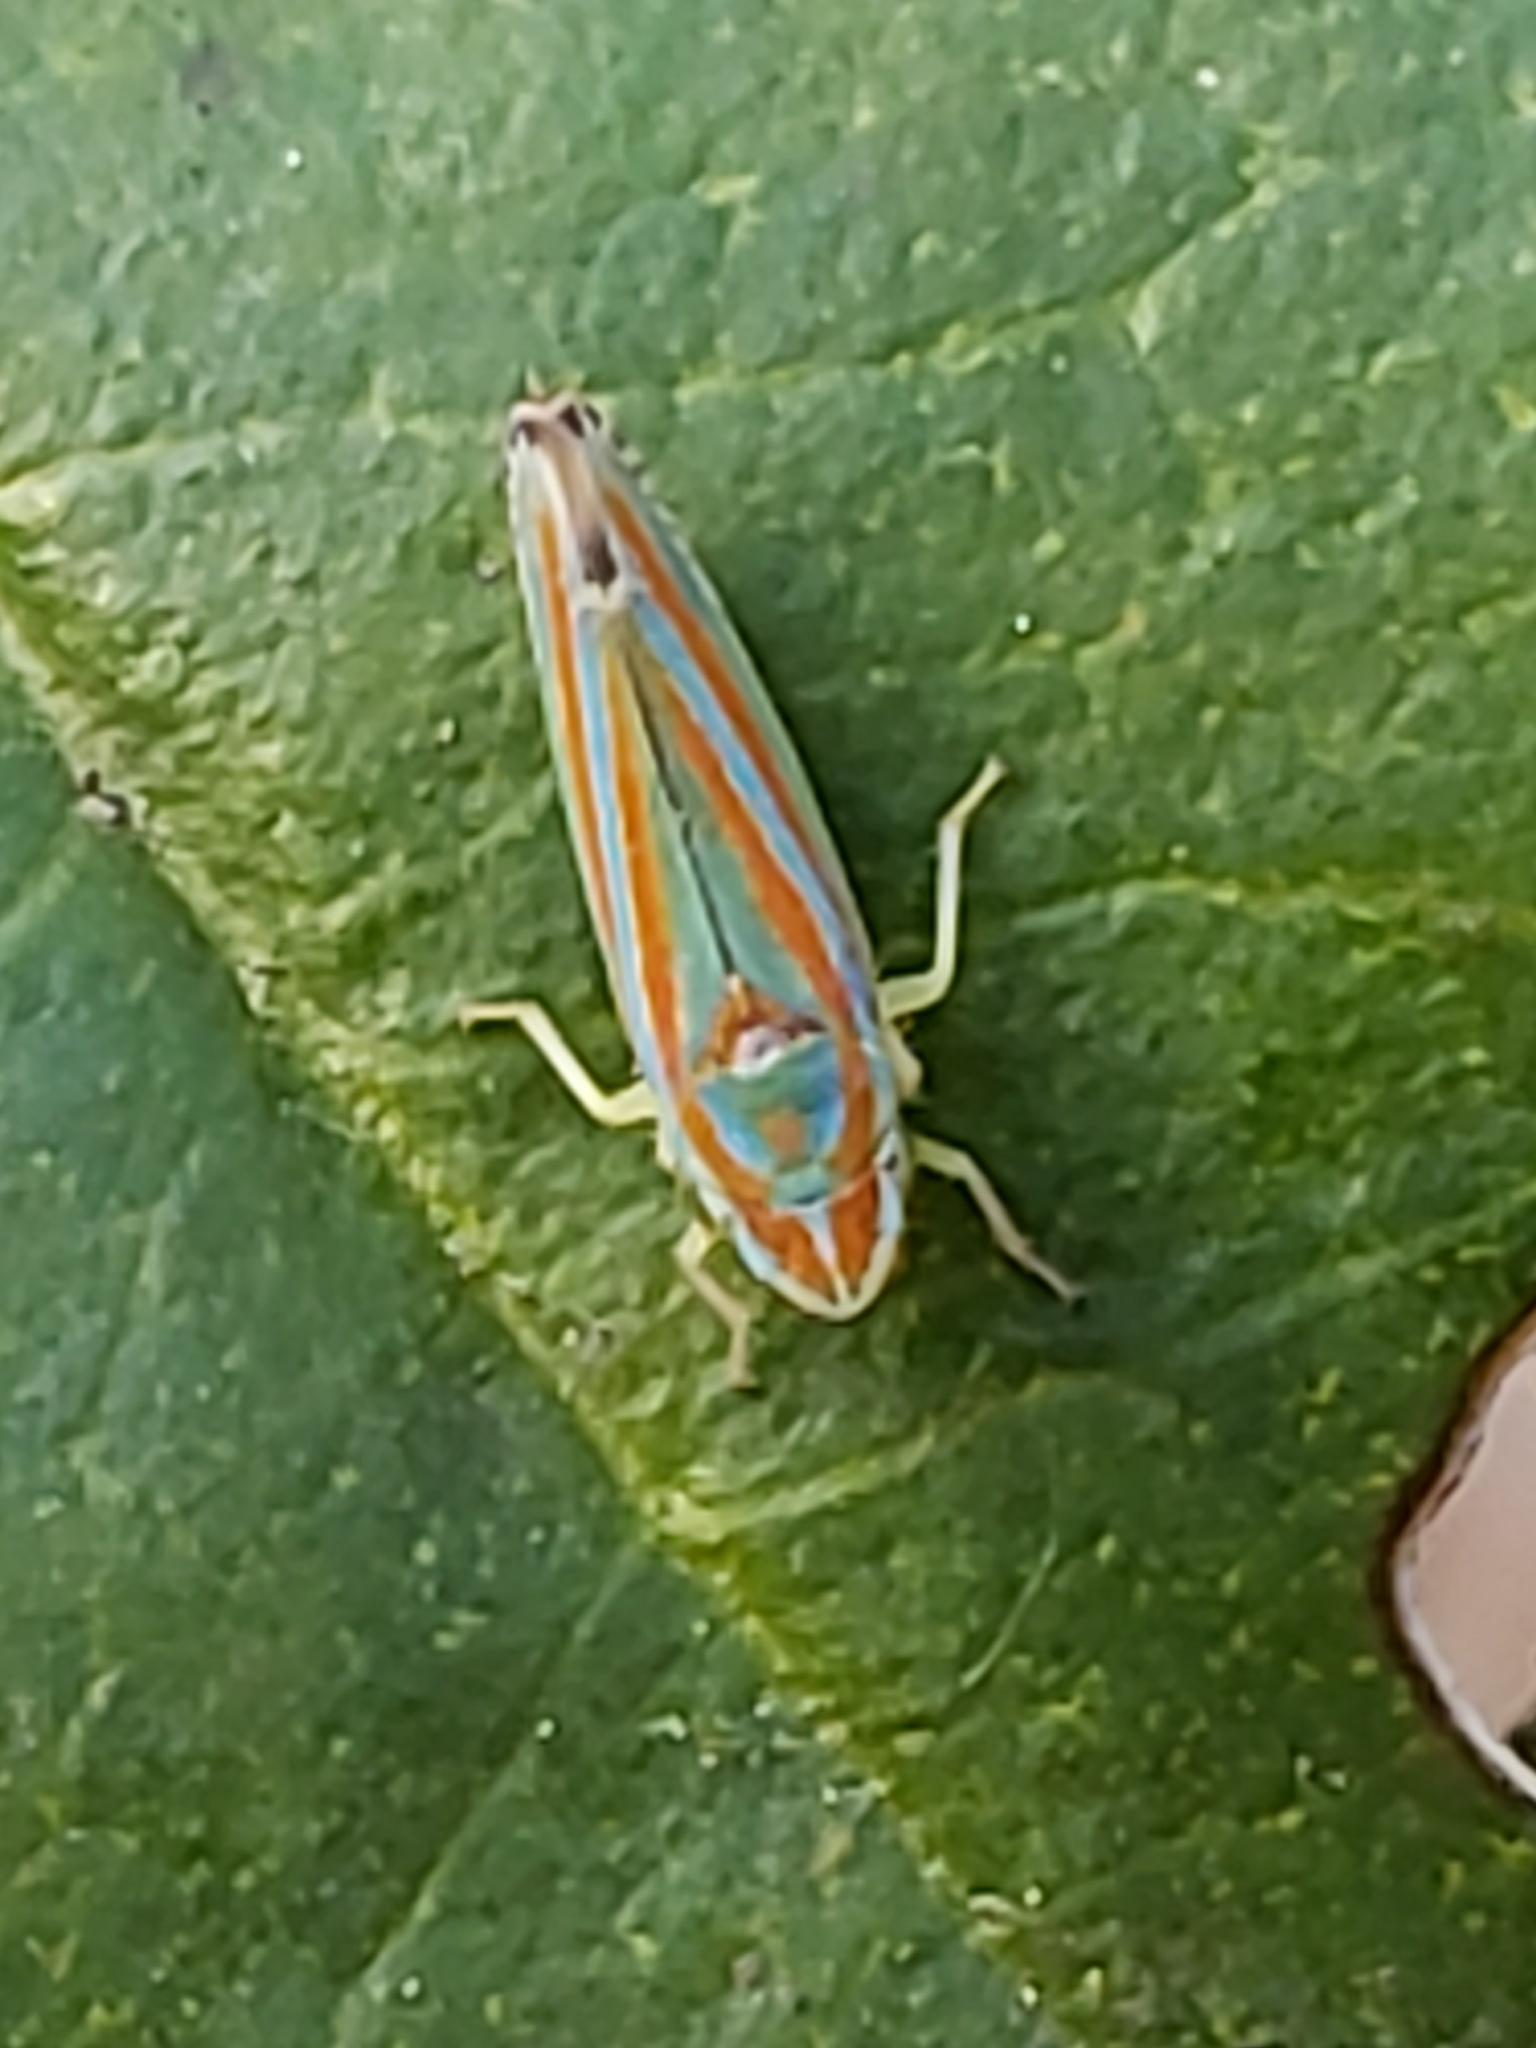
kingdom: Animalia
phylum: Arthropoda
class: Insecta
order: Hemiptera
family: Cicadellidae
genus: Graphocephala
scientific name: Graphocephala versuta
